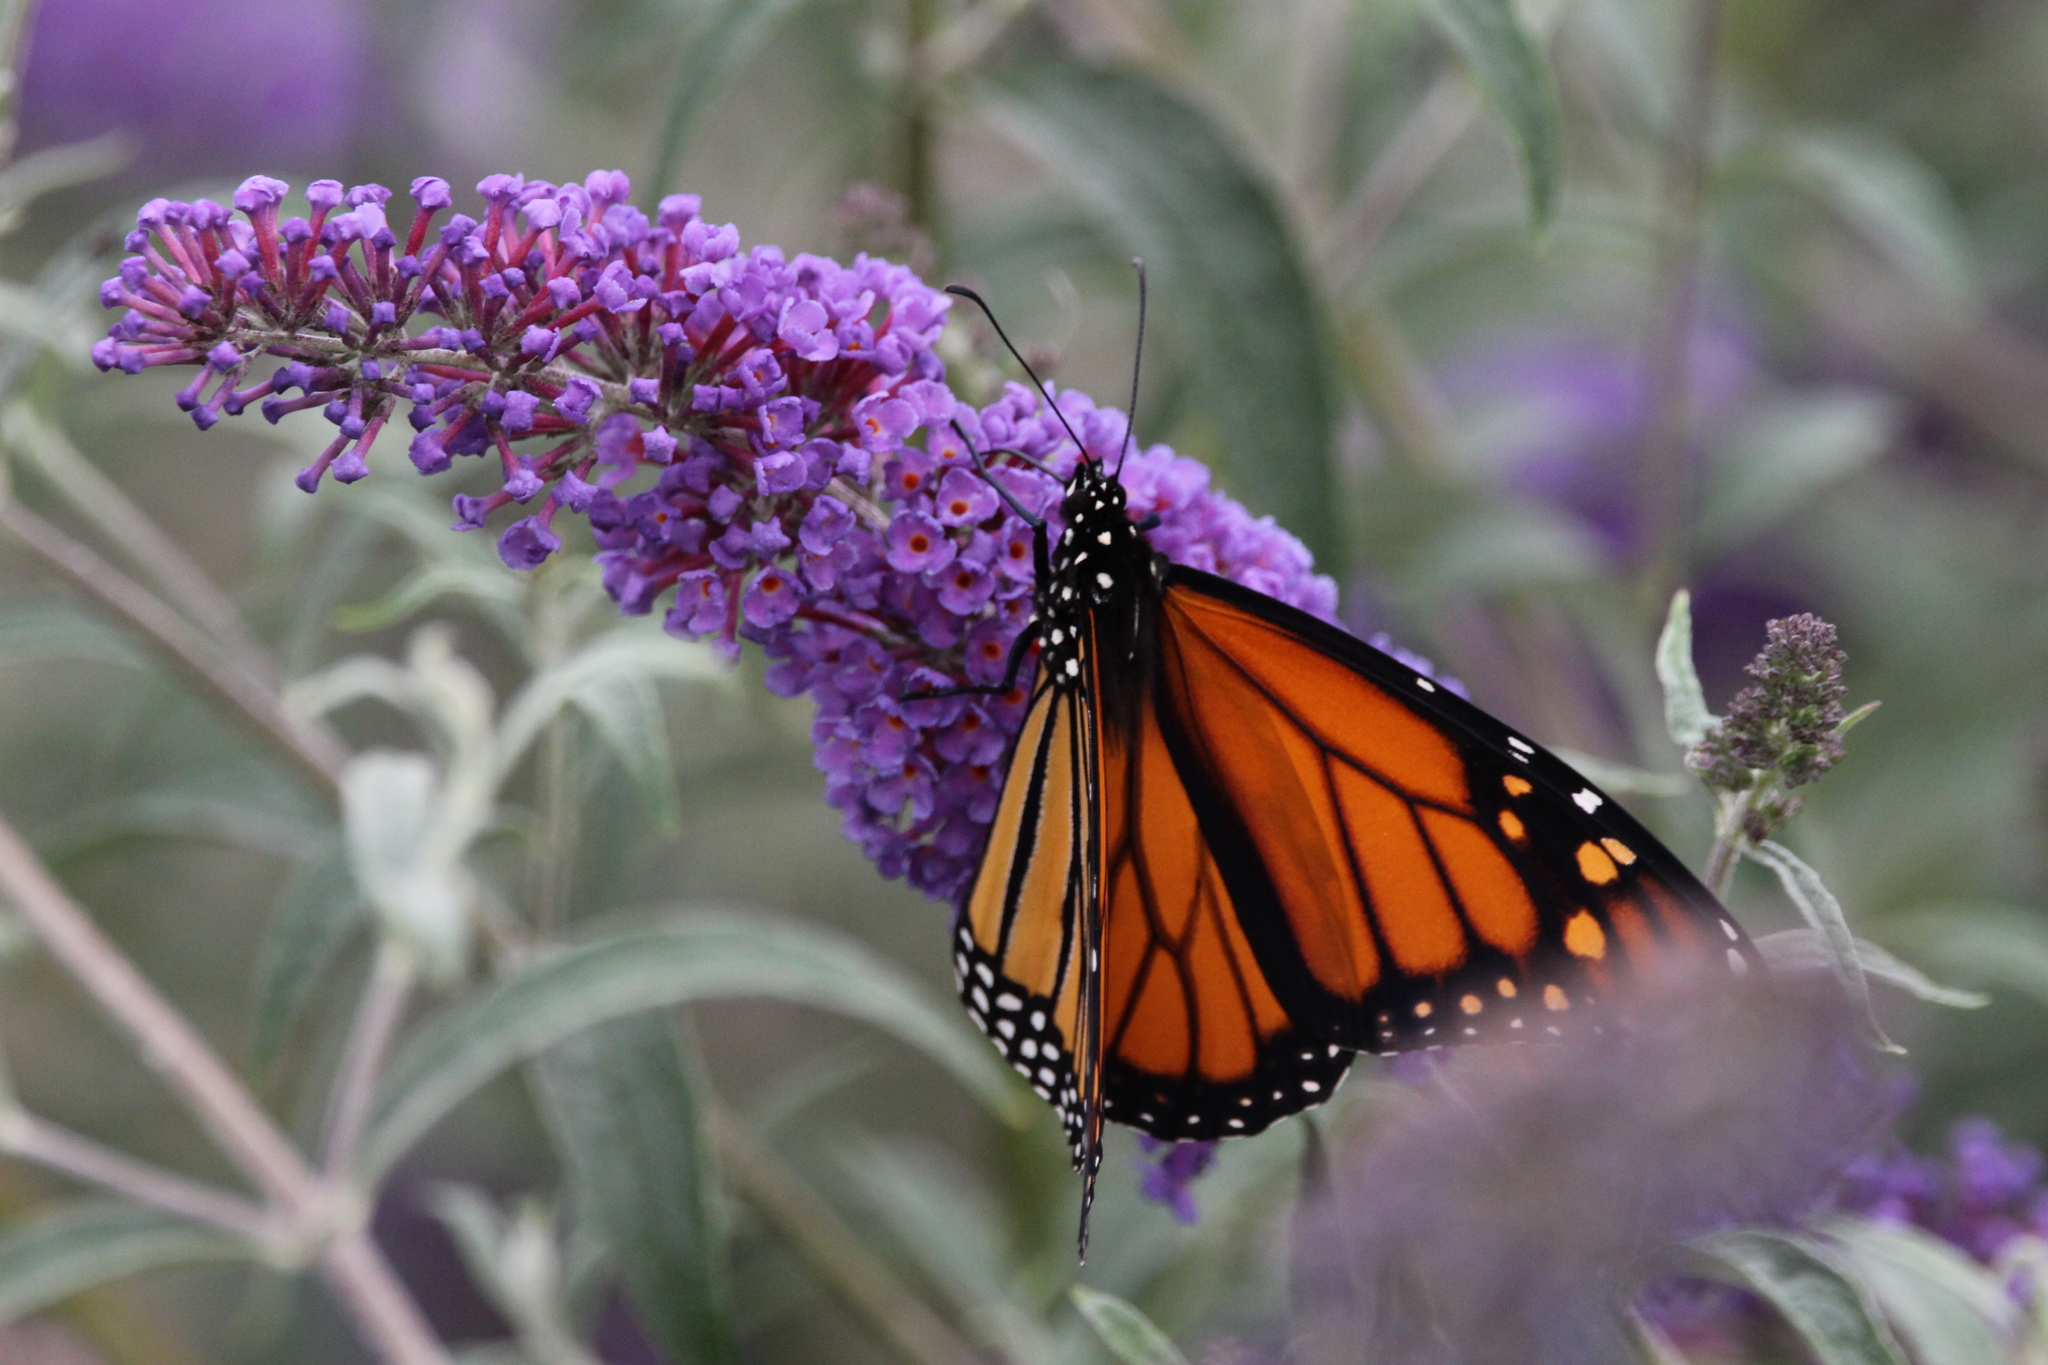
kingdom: Animalia
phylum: Arthropoda
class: Insecta
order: Lepidoptera
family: Nymphalidae
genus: Danaus
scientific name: Danaus plexippus
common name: Monarch
